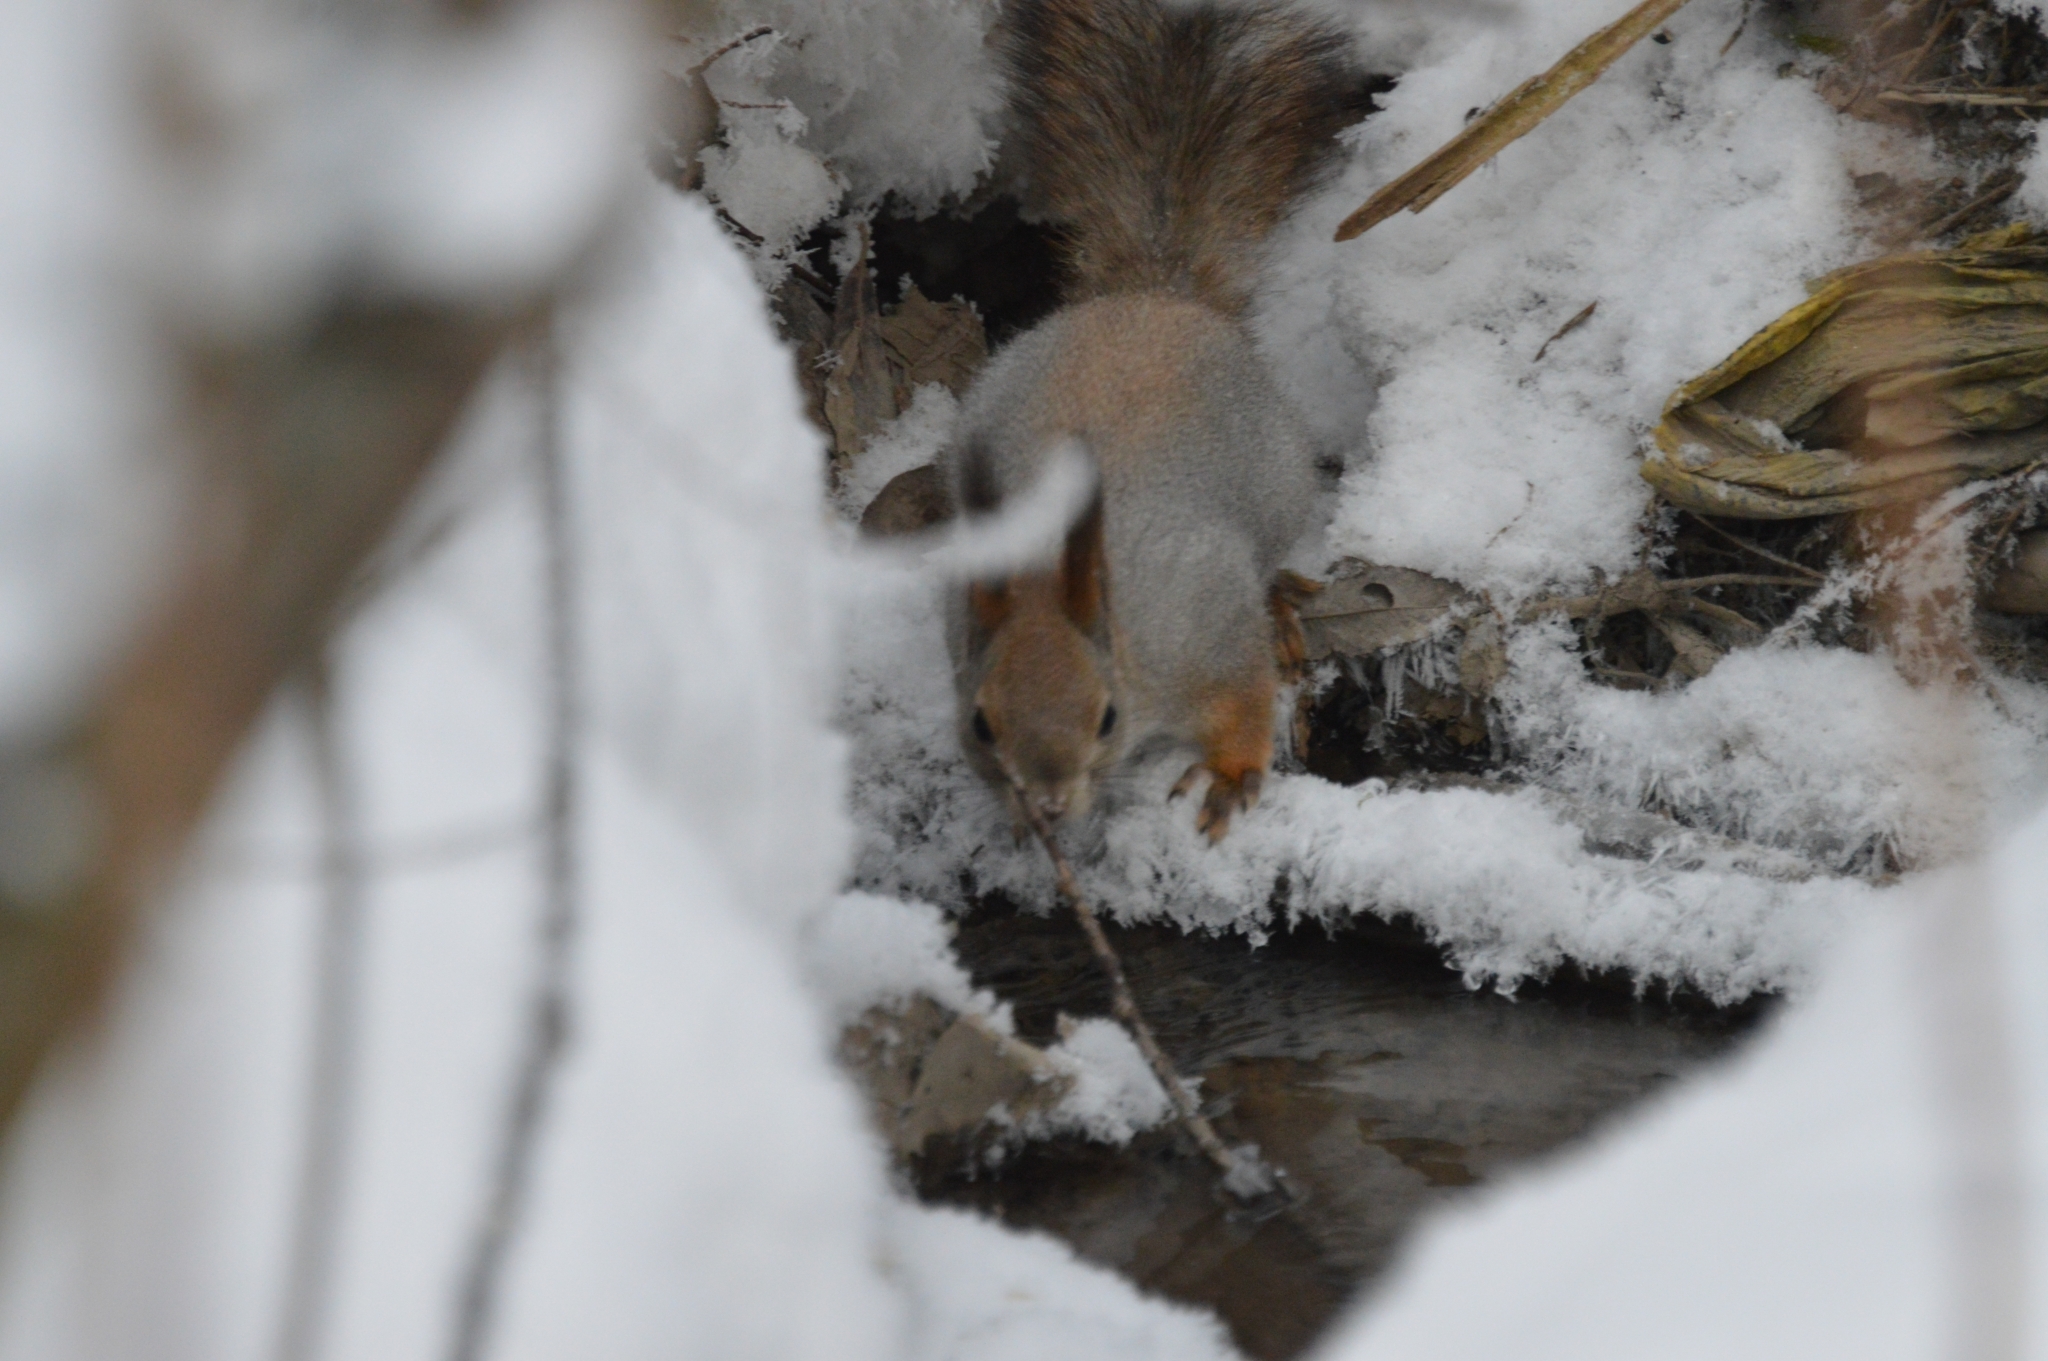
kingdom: Animalia
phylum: Chordata
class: Mammalia
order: Rodentia
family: Sciuridae
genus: Sciurus
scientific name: Sciurus vulgaris
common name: Eurasian red squirrel
